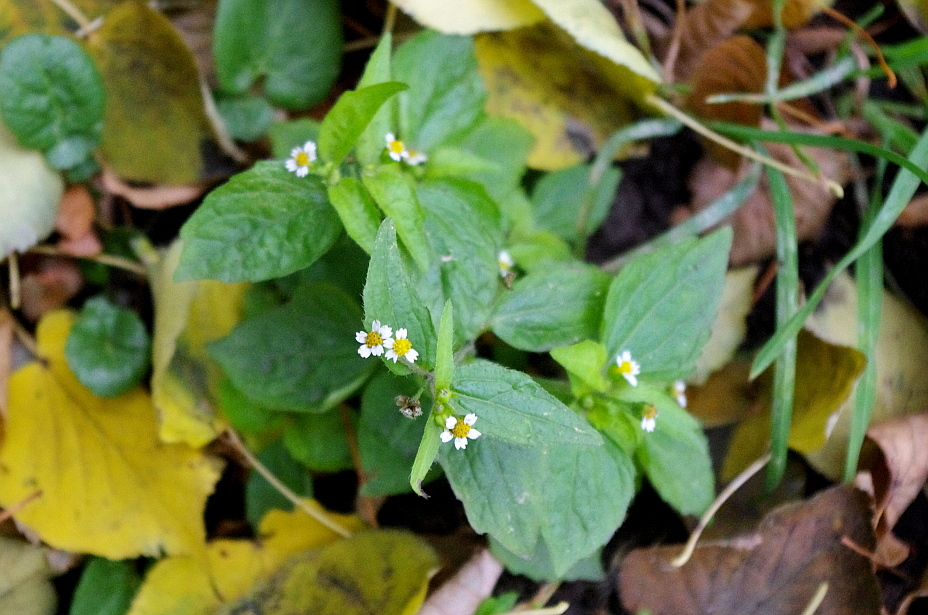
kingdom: Plantae
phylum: Tracheophyta
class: Magnoliopsida
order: Asterales
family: Asteraceae
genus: Galinsoga
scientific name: Galinsoga quadriradiata
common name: Shaggy soldier
